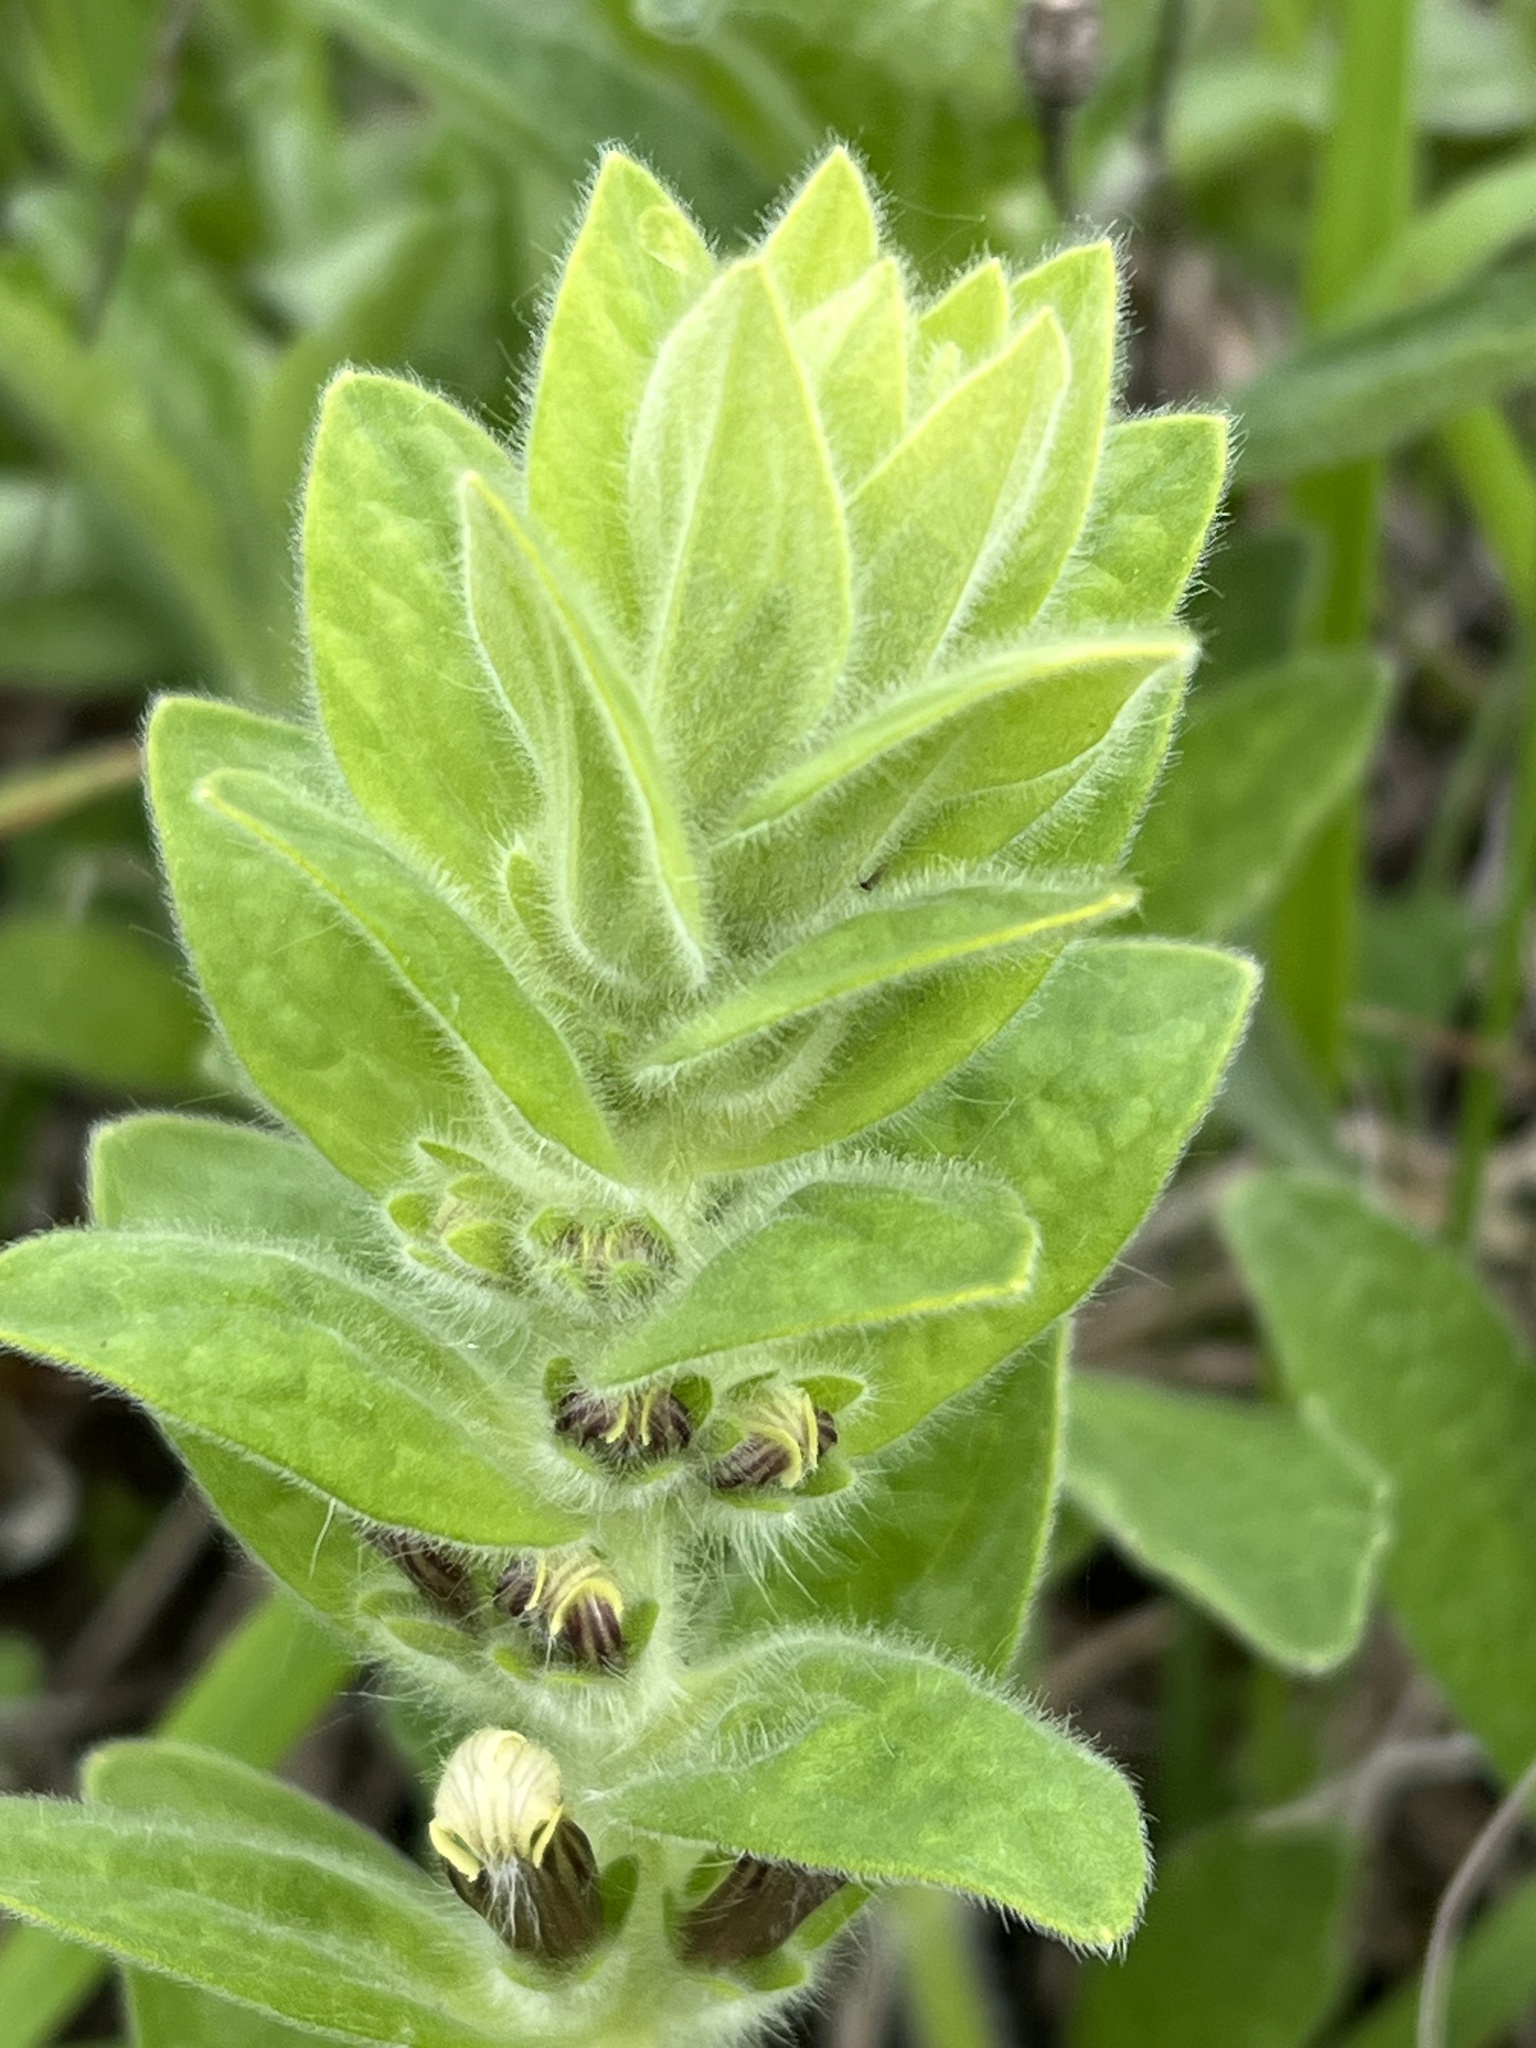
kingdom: Plantae
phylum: Tracheophyta
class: Magnoliopsida
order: Lamiales
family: Lamiaceae
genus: Ajuga
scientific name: Ajuga laxmannii
